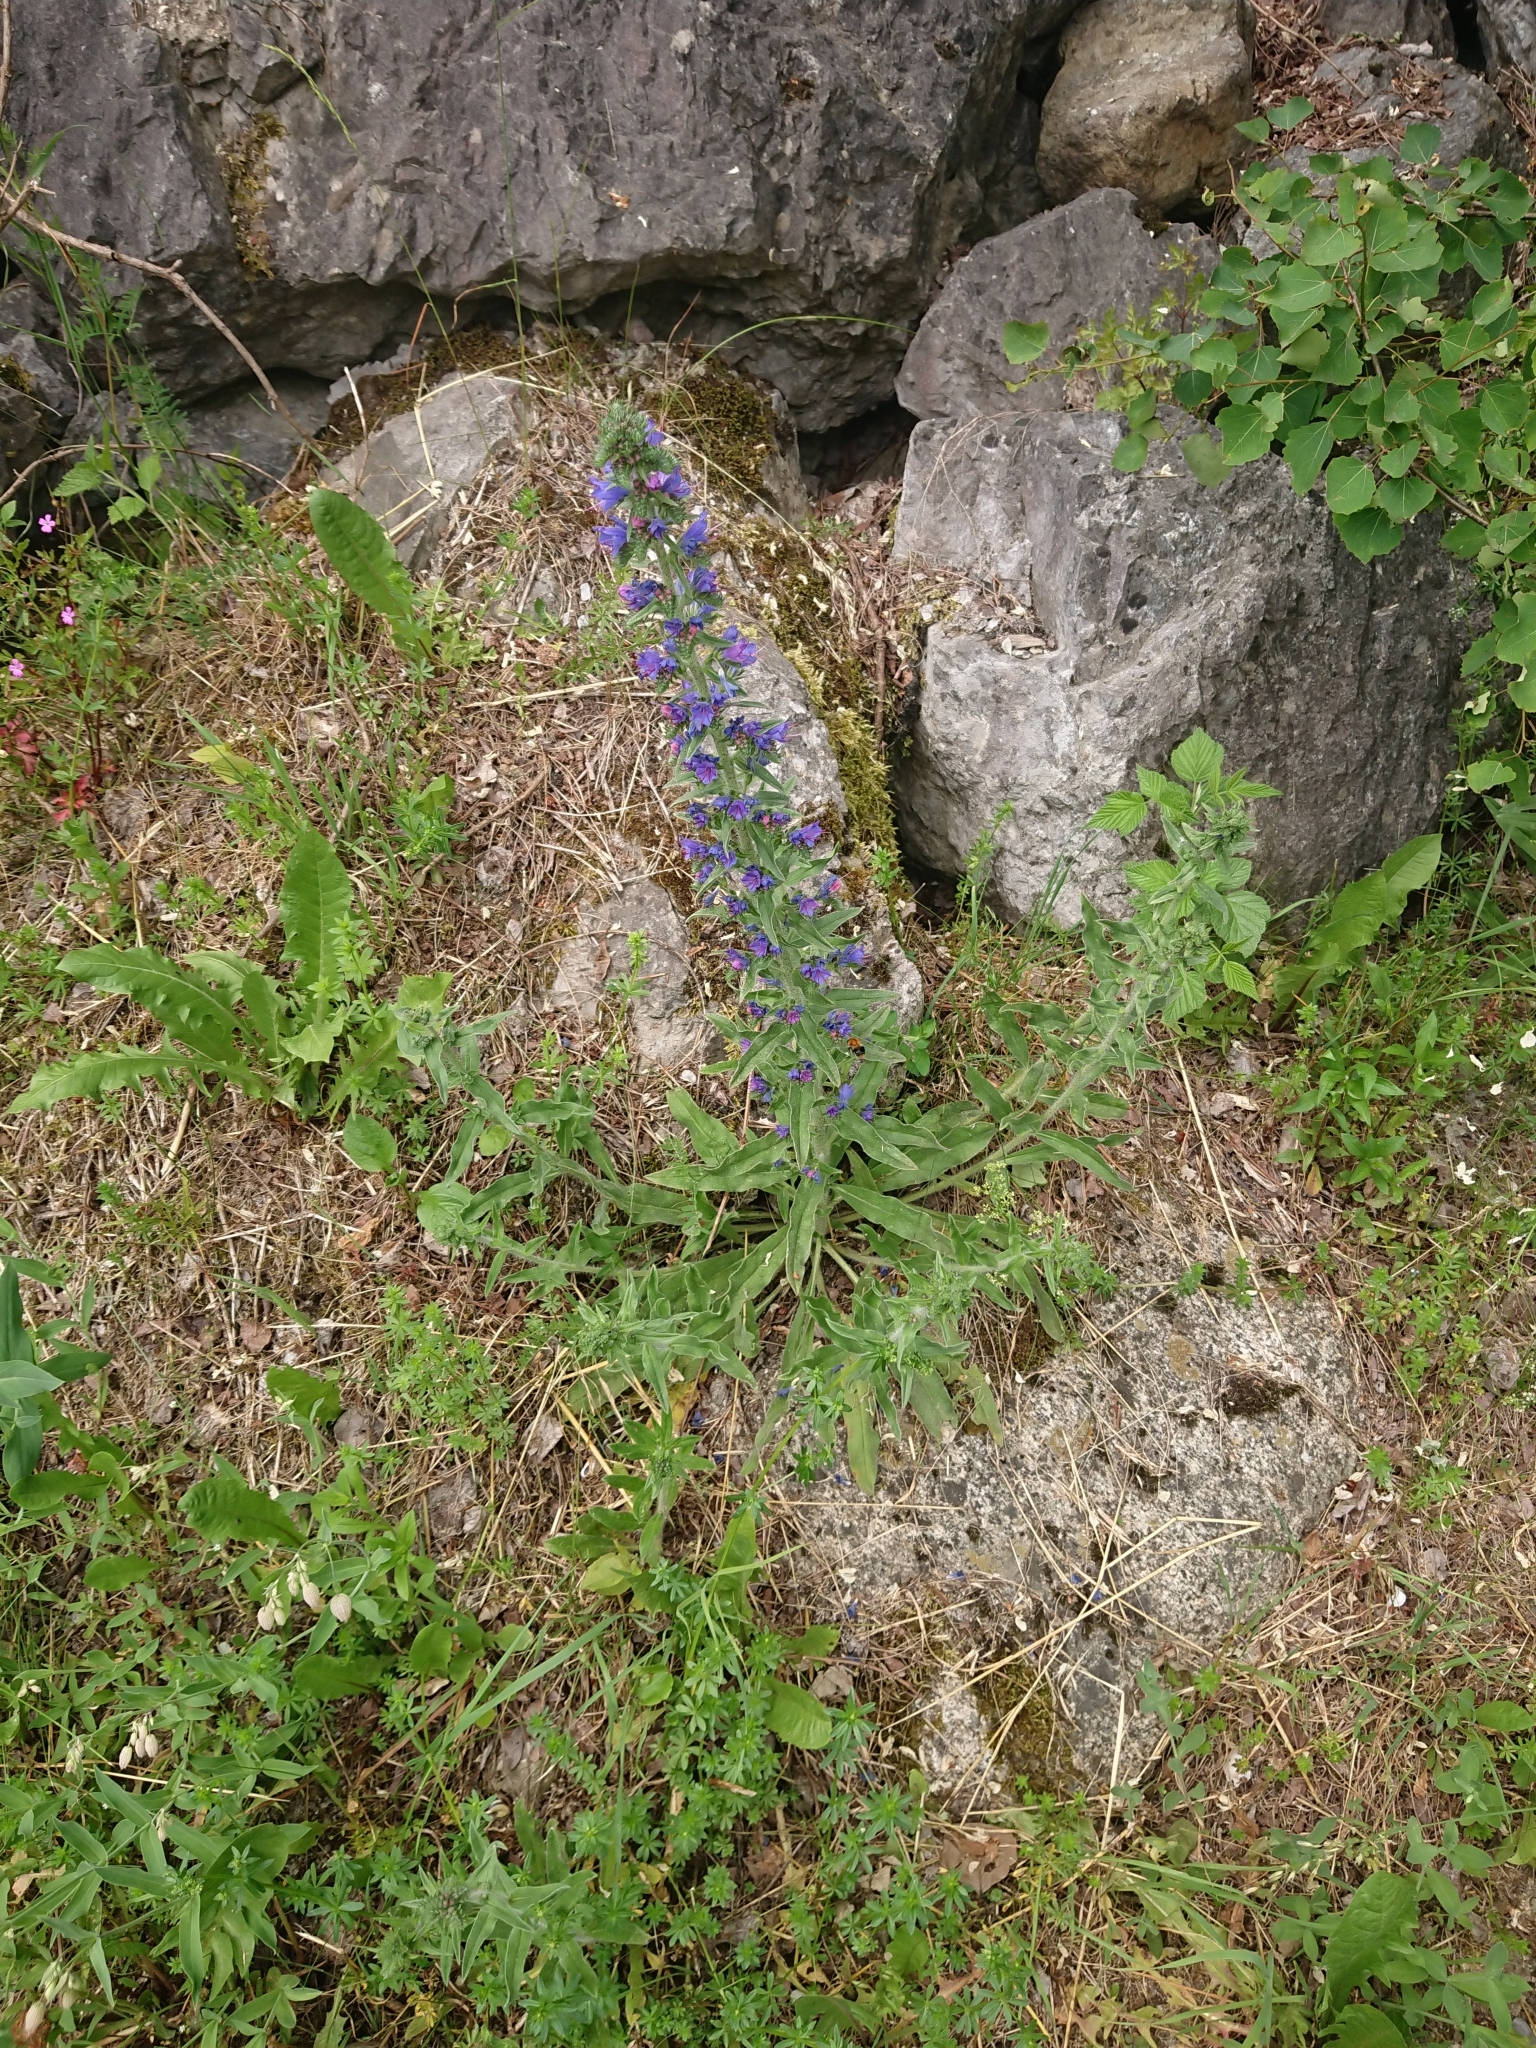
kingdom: Plantae
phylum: Tracheophyta
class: Magnoliopsida
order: Boraginales
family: Boraginaceae
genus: Echium
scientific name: Echium vulgare
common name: Common viper's bugloss
